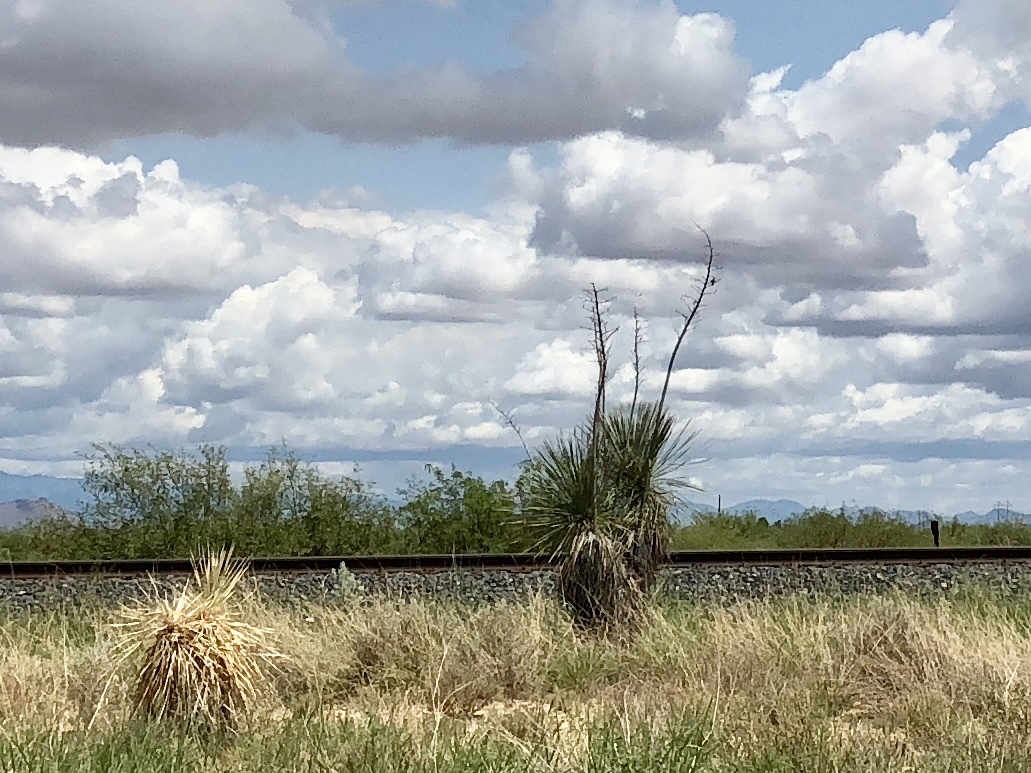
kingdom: Plantae
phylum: Tracheophyta
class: Liliopsida
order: Asparagales
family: Asparagaceae
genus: Yucca
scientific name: Yucca elata
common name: Palmella
